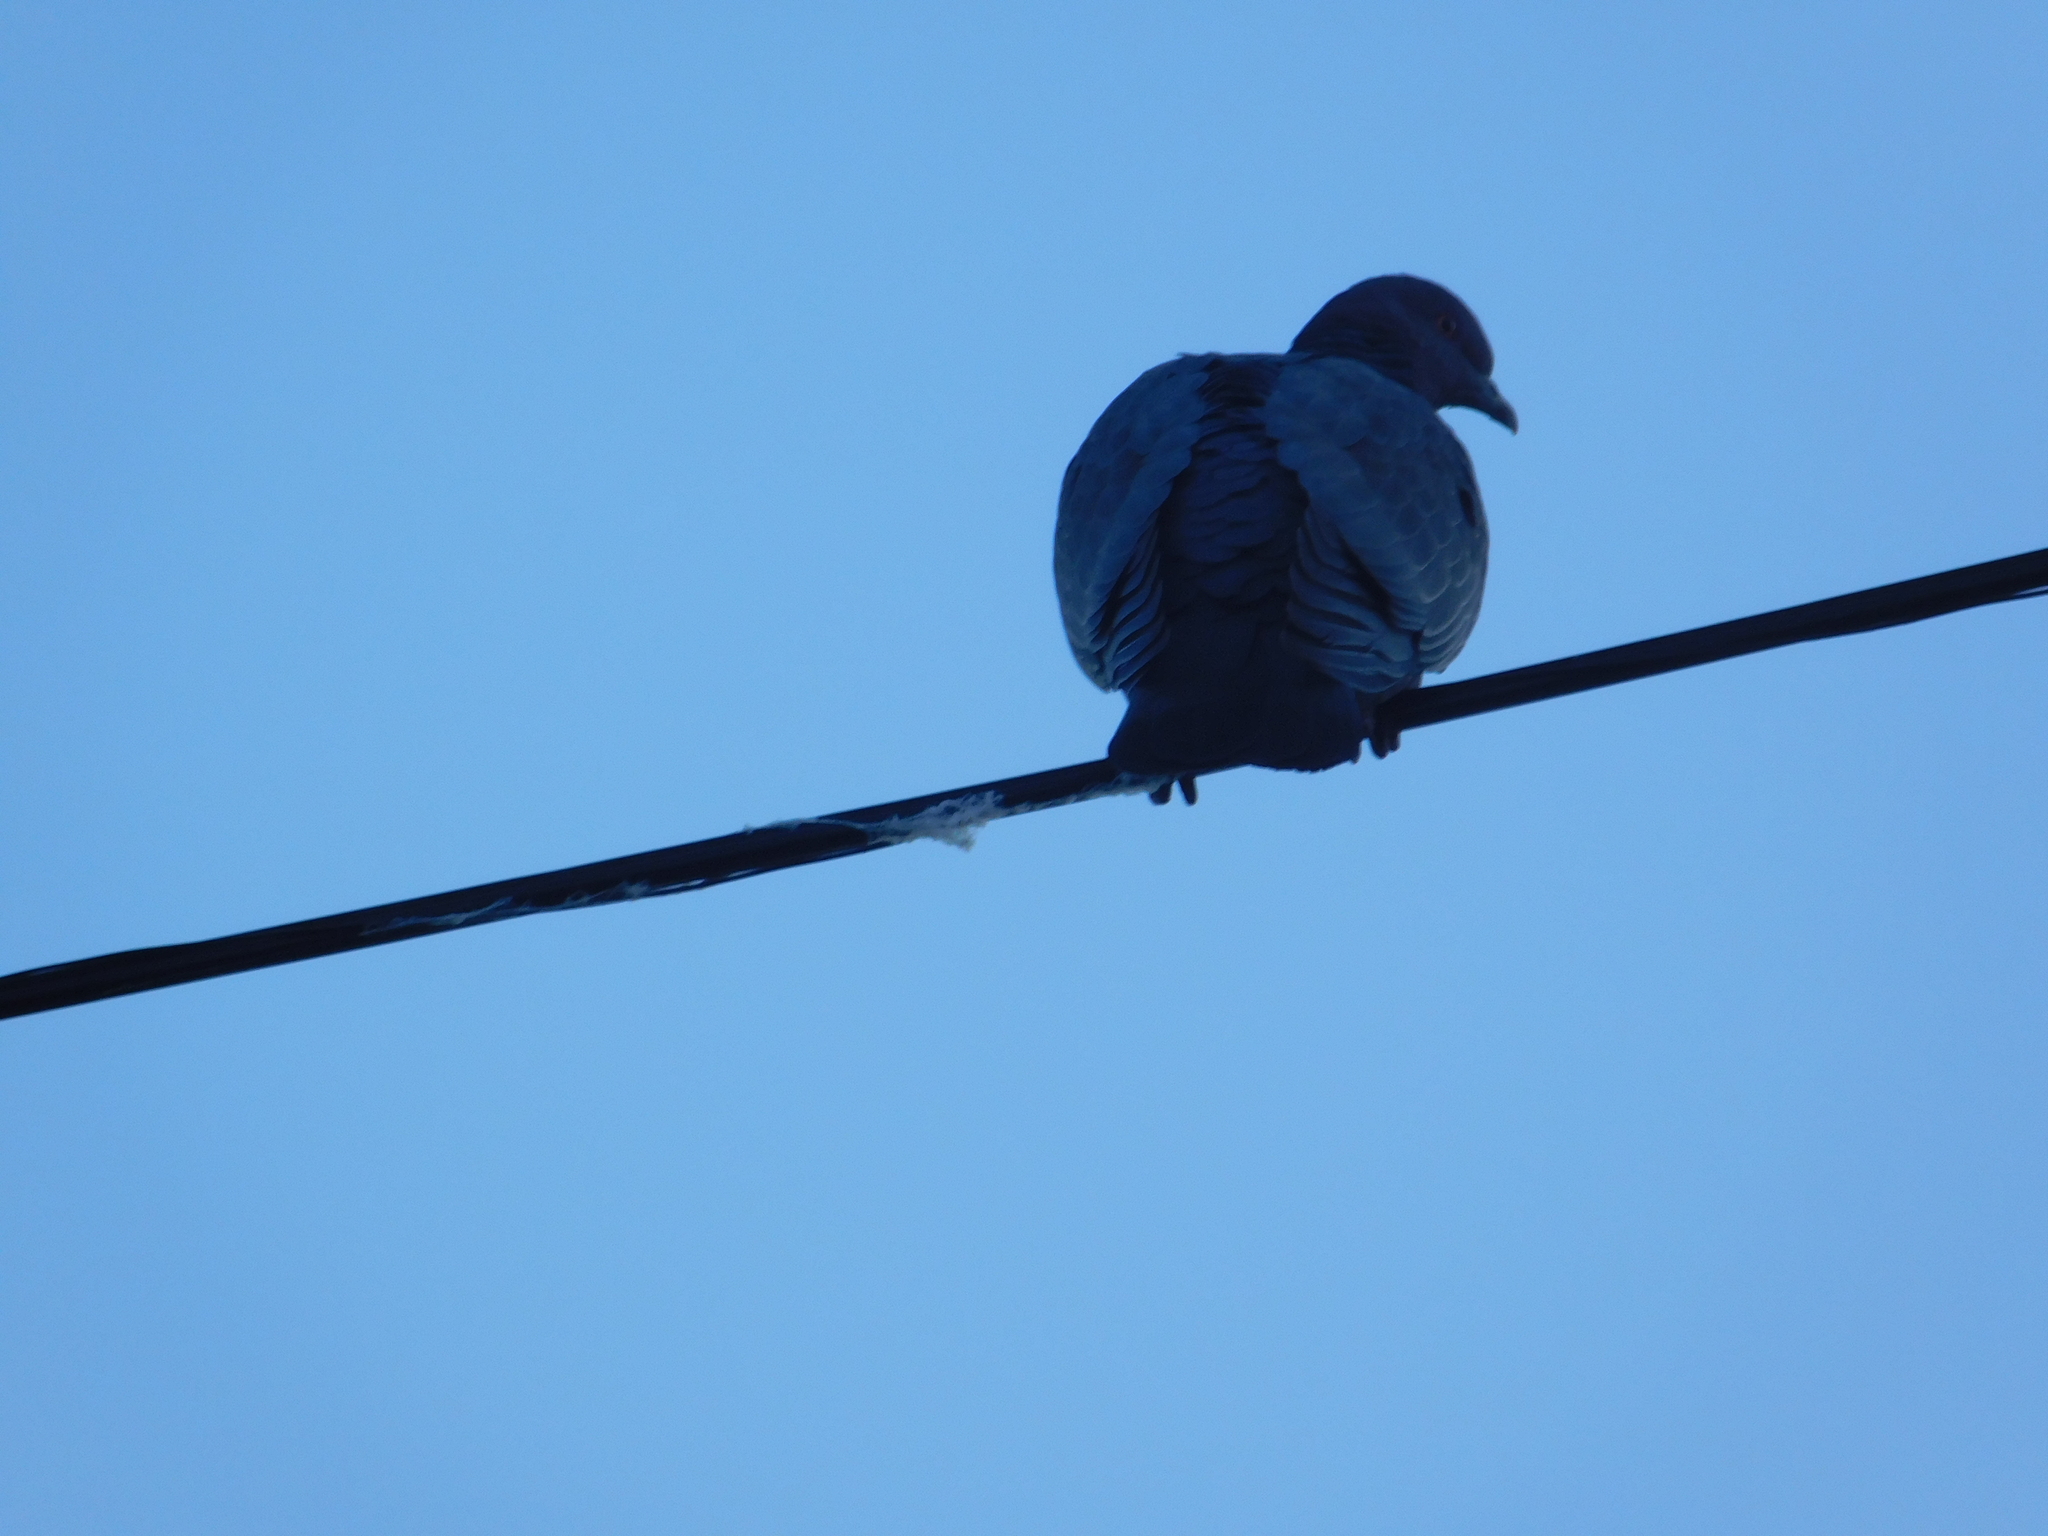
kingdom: Animalia
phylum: Chordata
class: Aves
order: Columbiformes
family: Columbidae
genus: Patagioenas
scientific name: Patagioenas picazuro
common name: Picazuro pigeon
